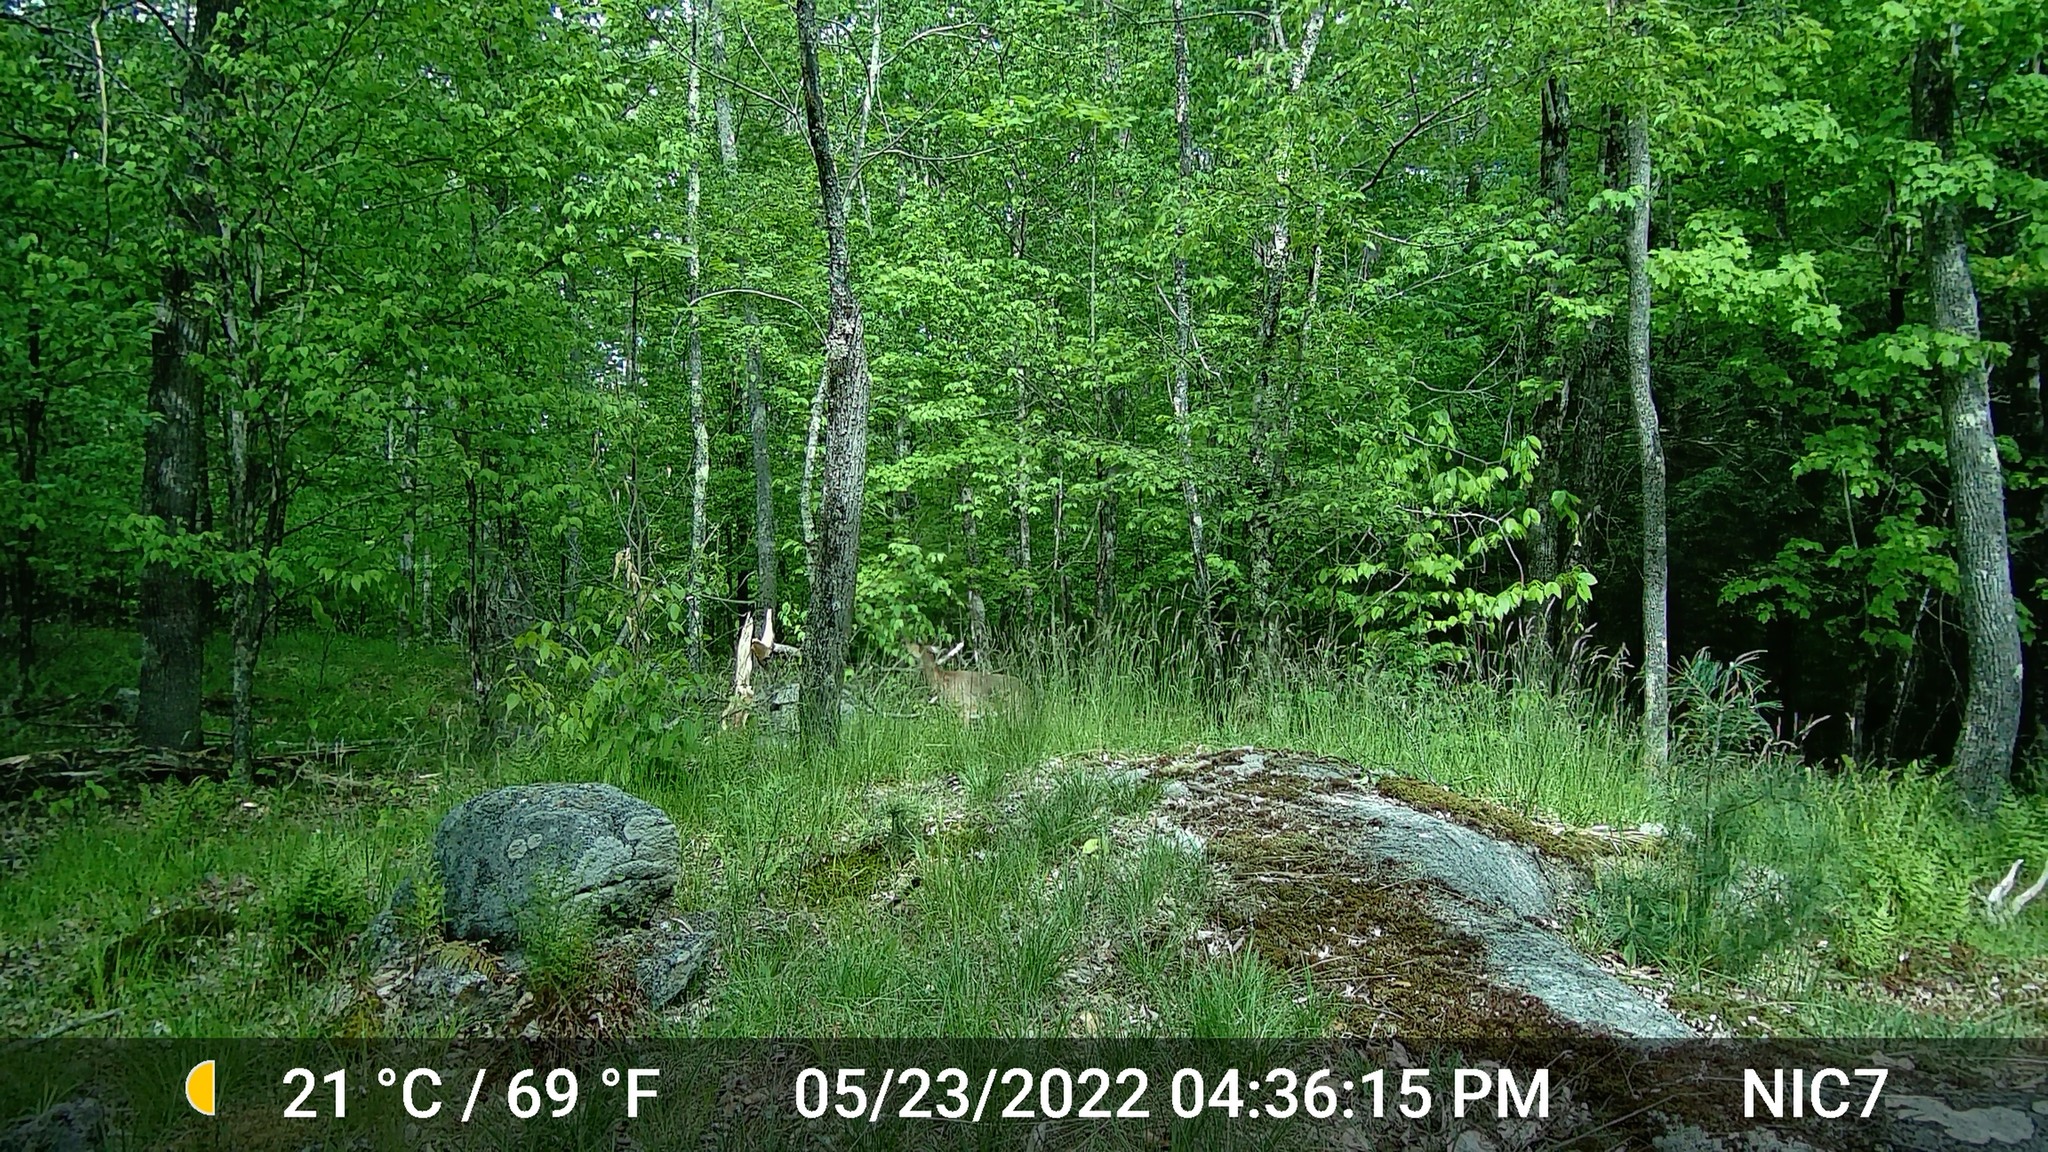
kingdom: Animalia
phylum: Chordata
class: Mammalia
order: Artiodactyla
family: Cervidae
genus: Odocoileus
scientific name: Odocoileus virginianus
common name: White-tailed deer
